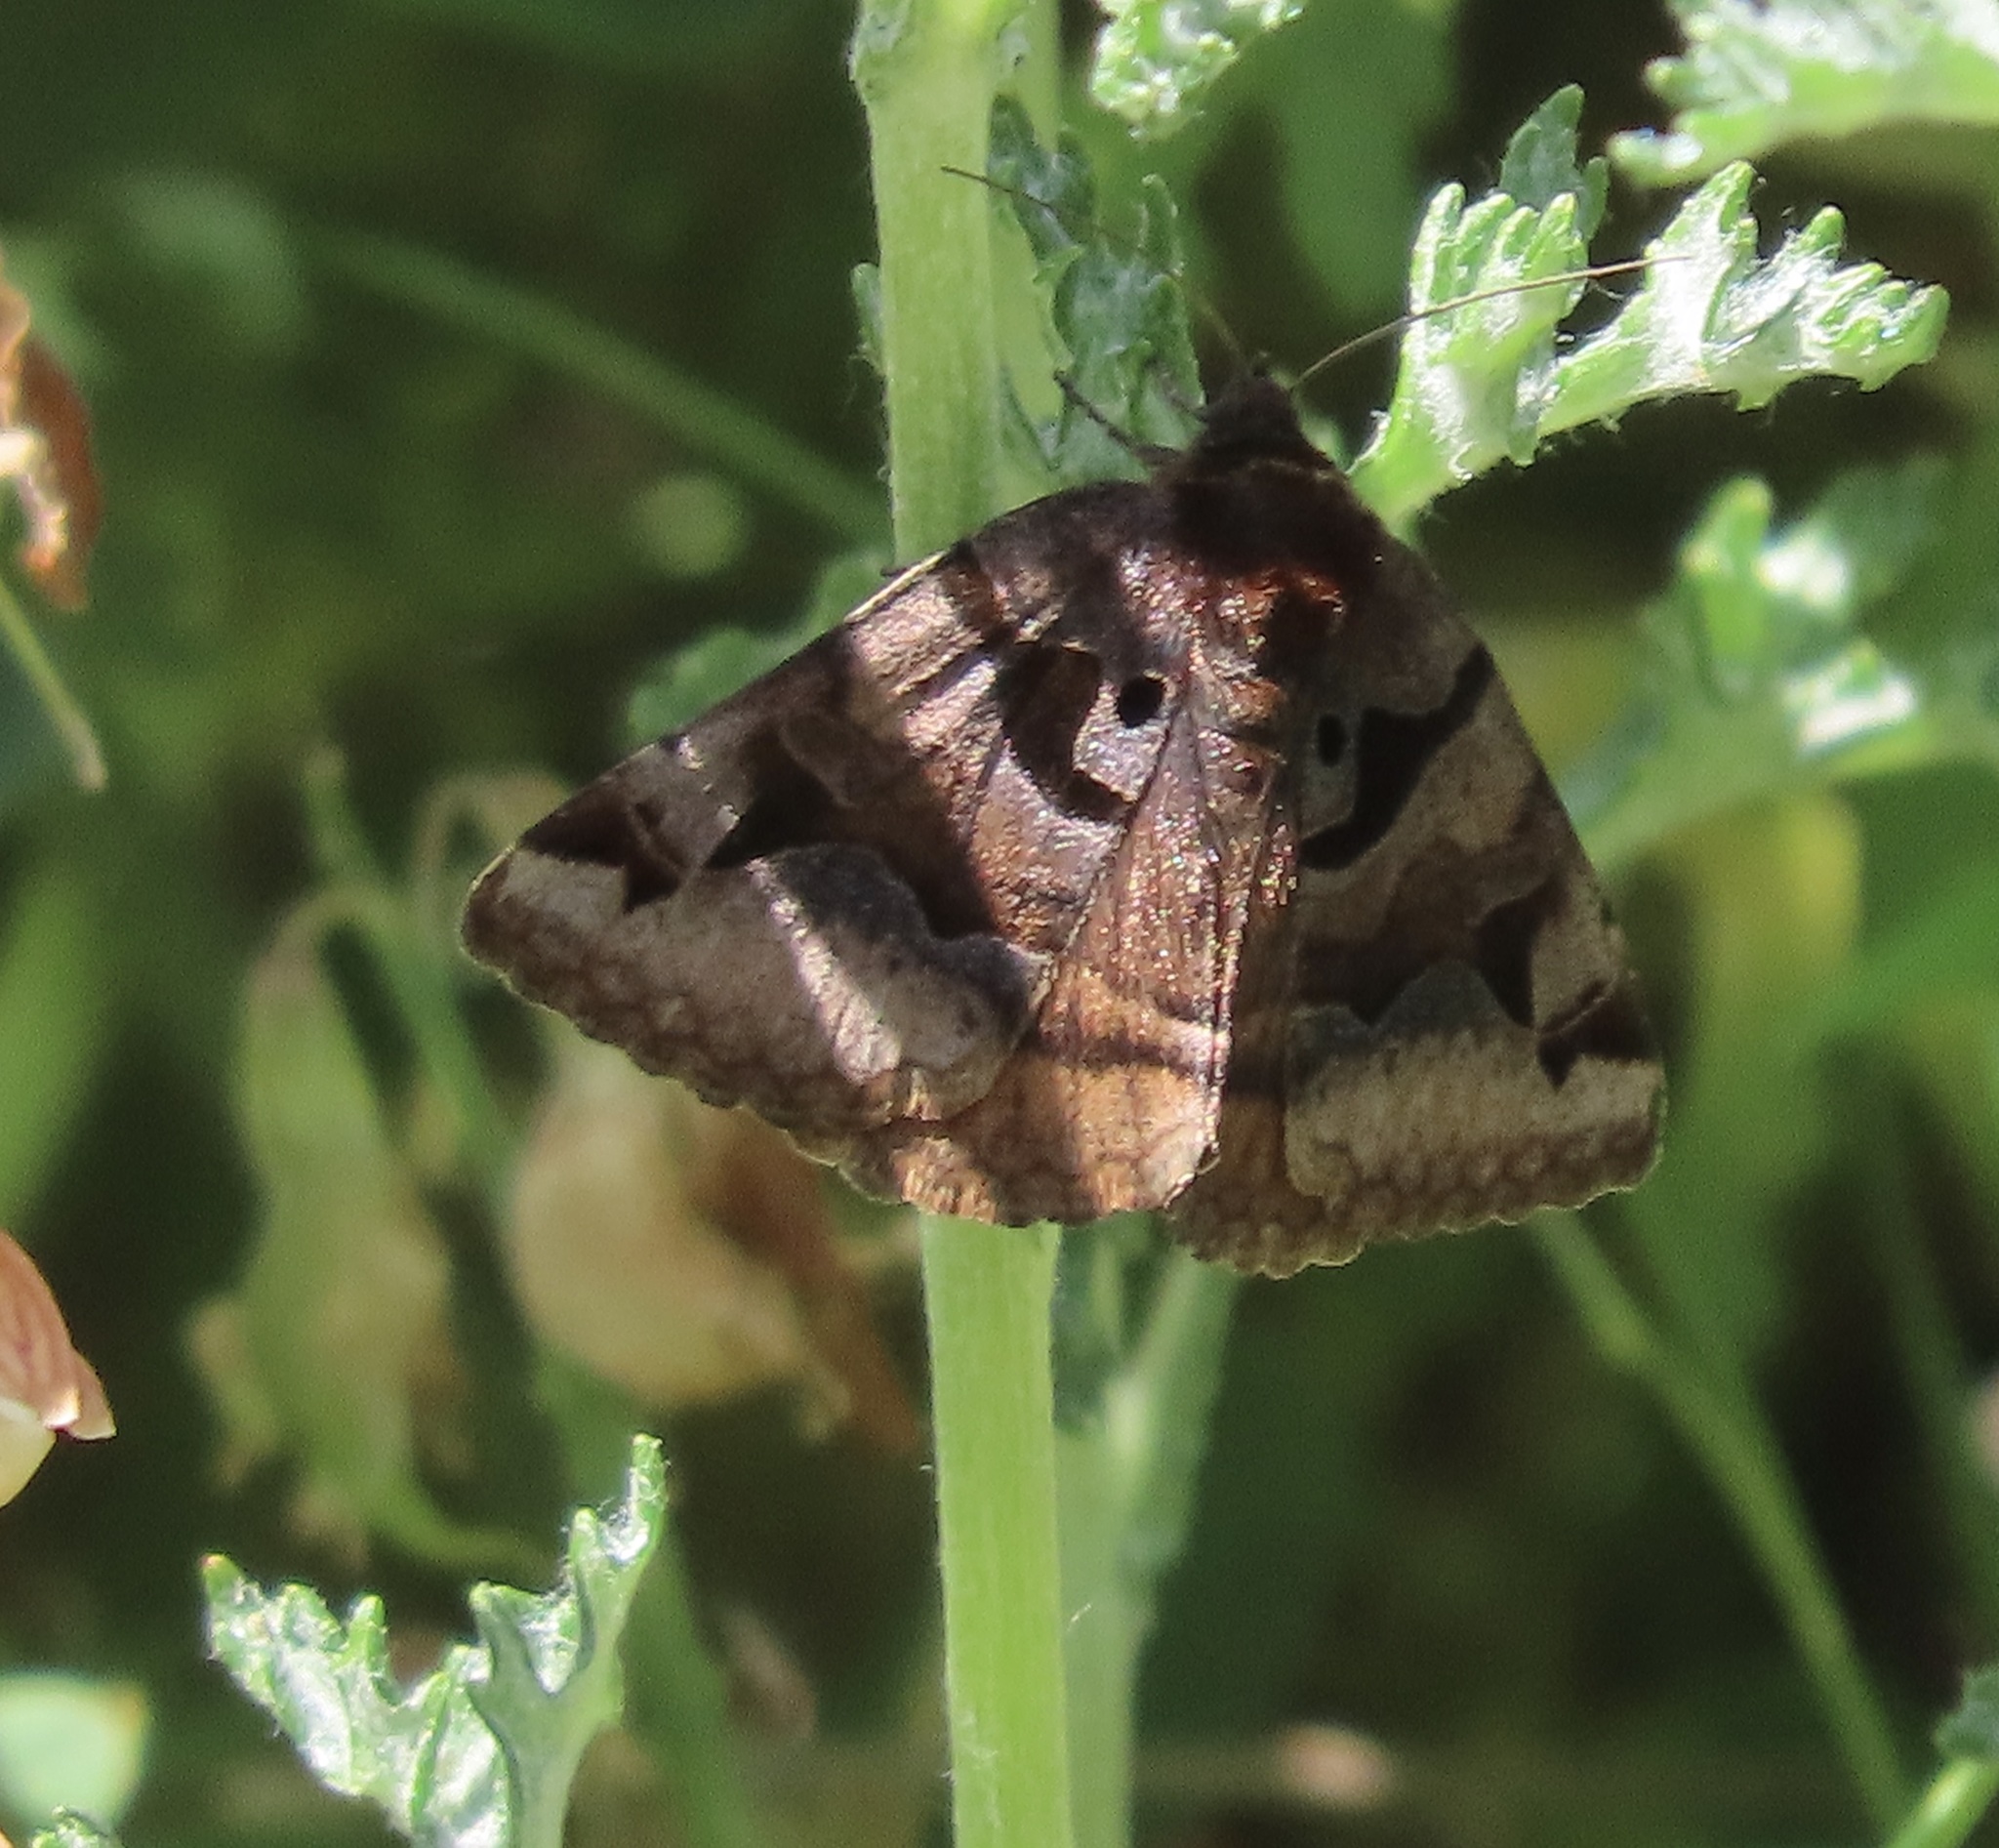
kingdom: Animalia
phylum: Arthropoda
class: Insecta
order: Lepidoptera
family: Erebidae
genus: Euclidia
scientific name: Euclidia ardita
